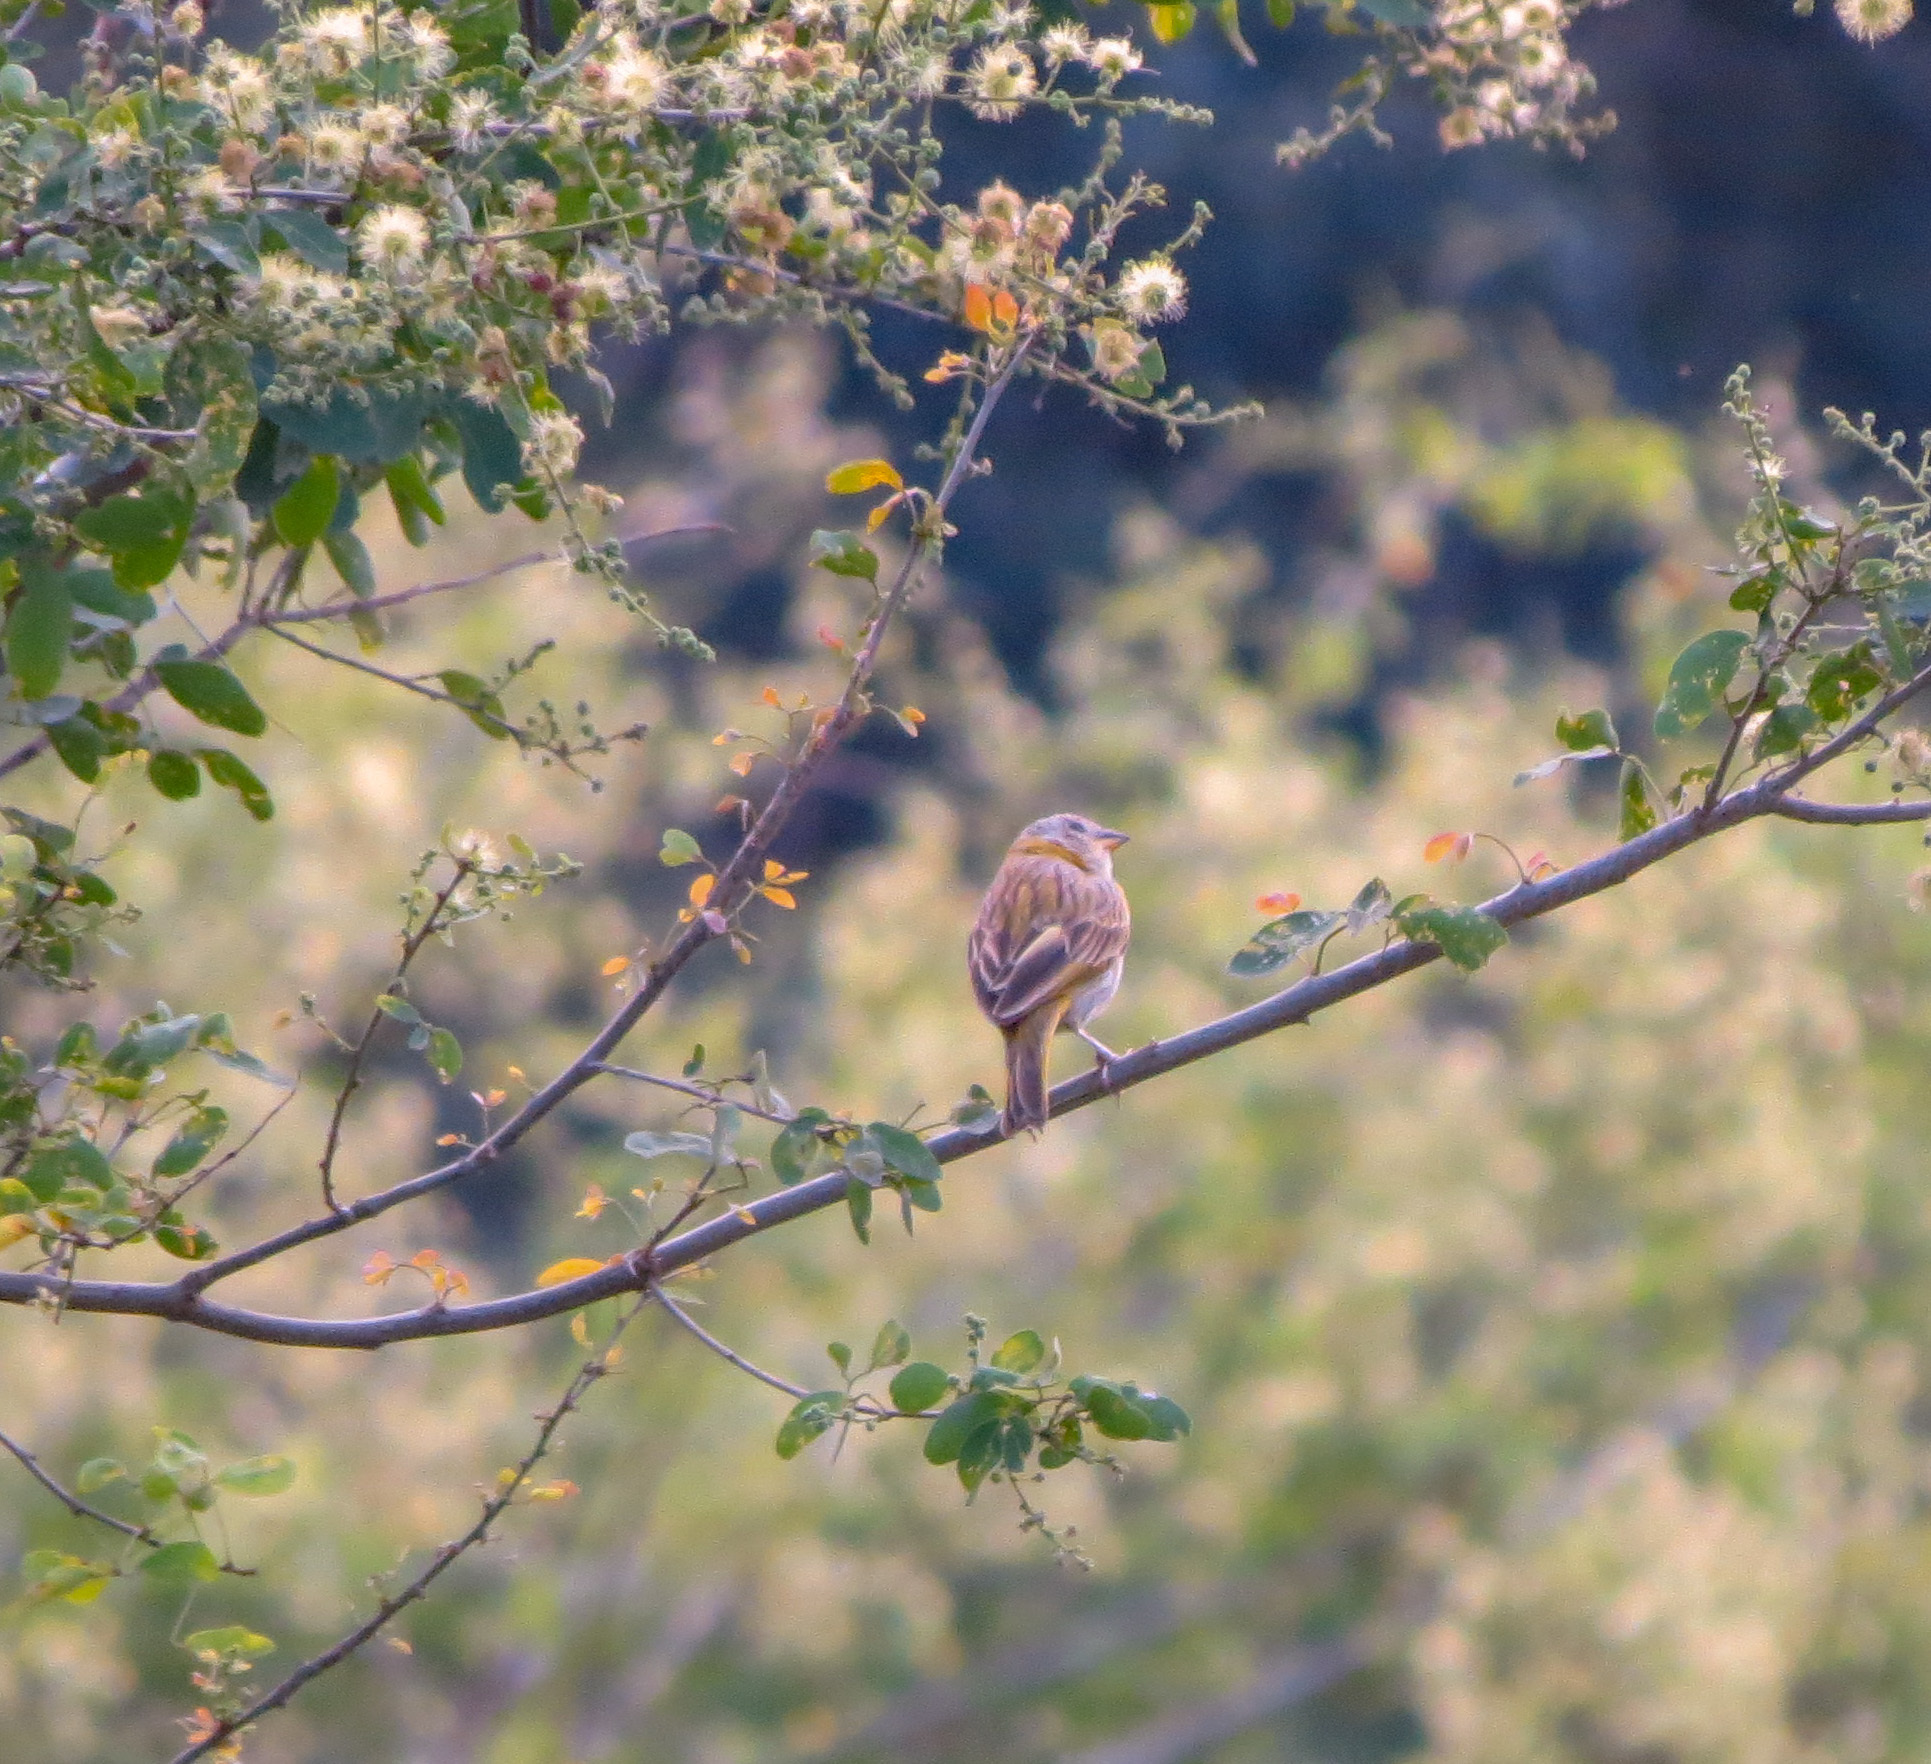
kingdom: Animalia
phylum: Chordata
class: Aves
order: Passeriformes
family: Thraupidae
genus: Sicalis
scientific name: Sicalis flaveola
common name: Saffron finch
